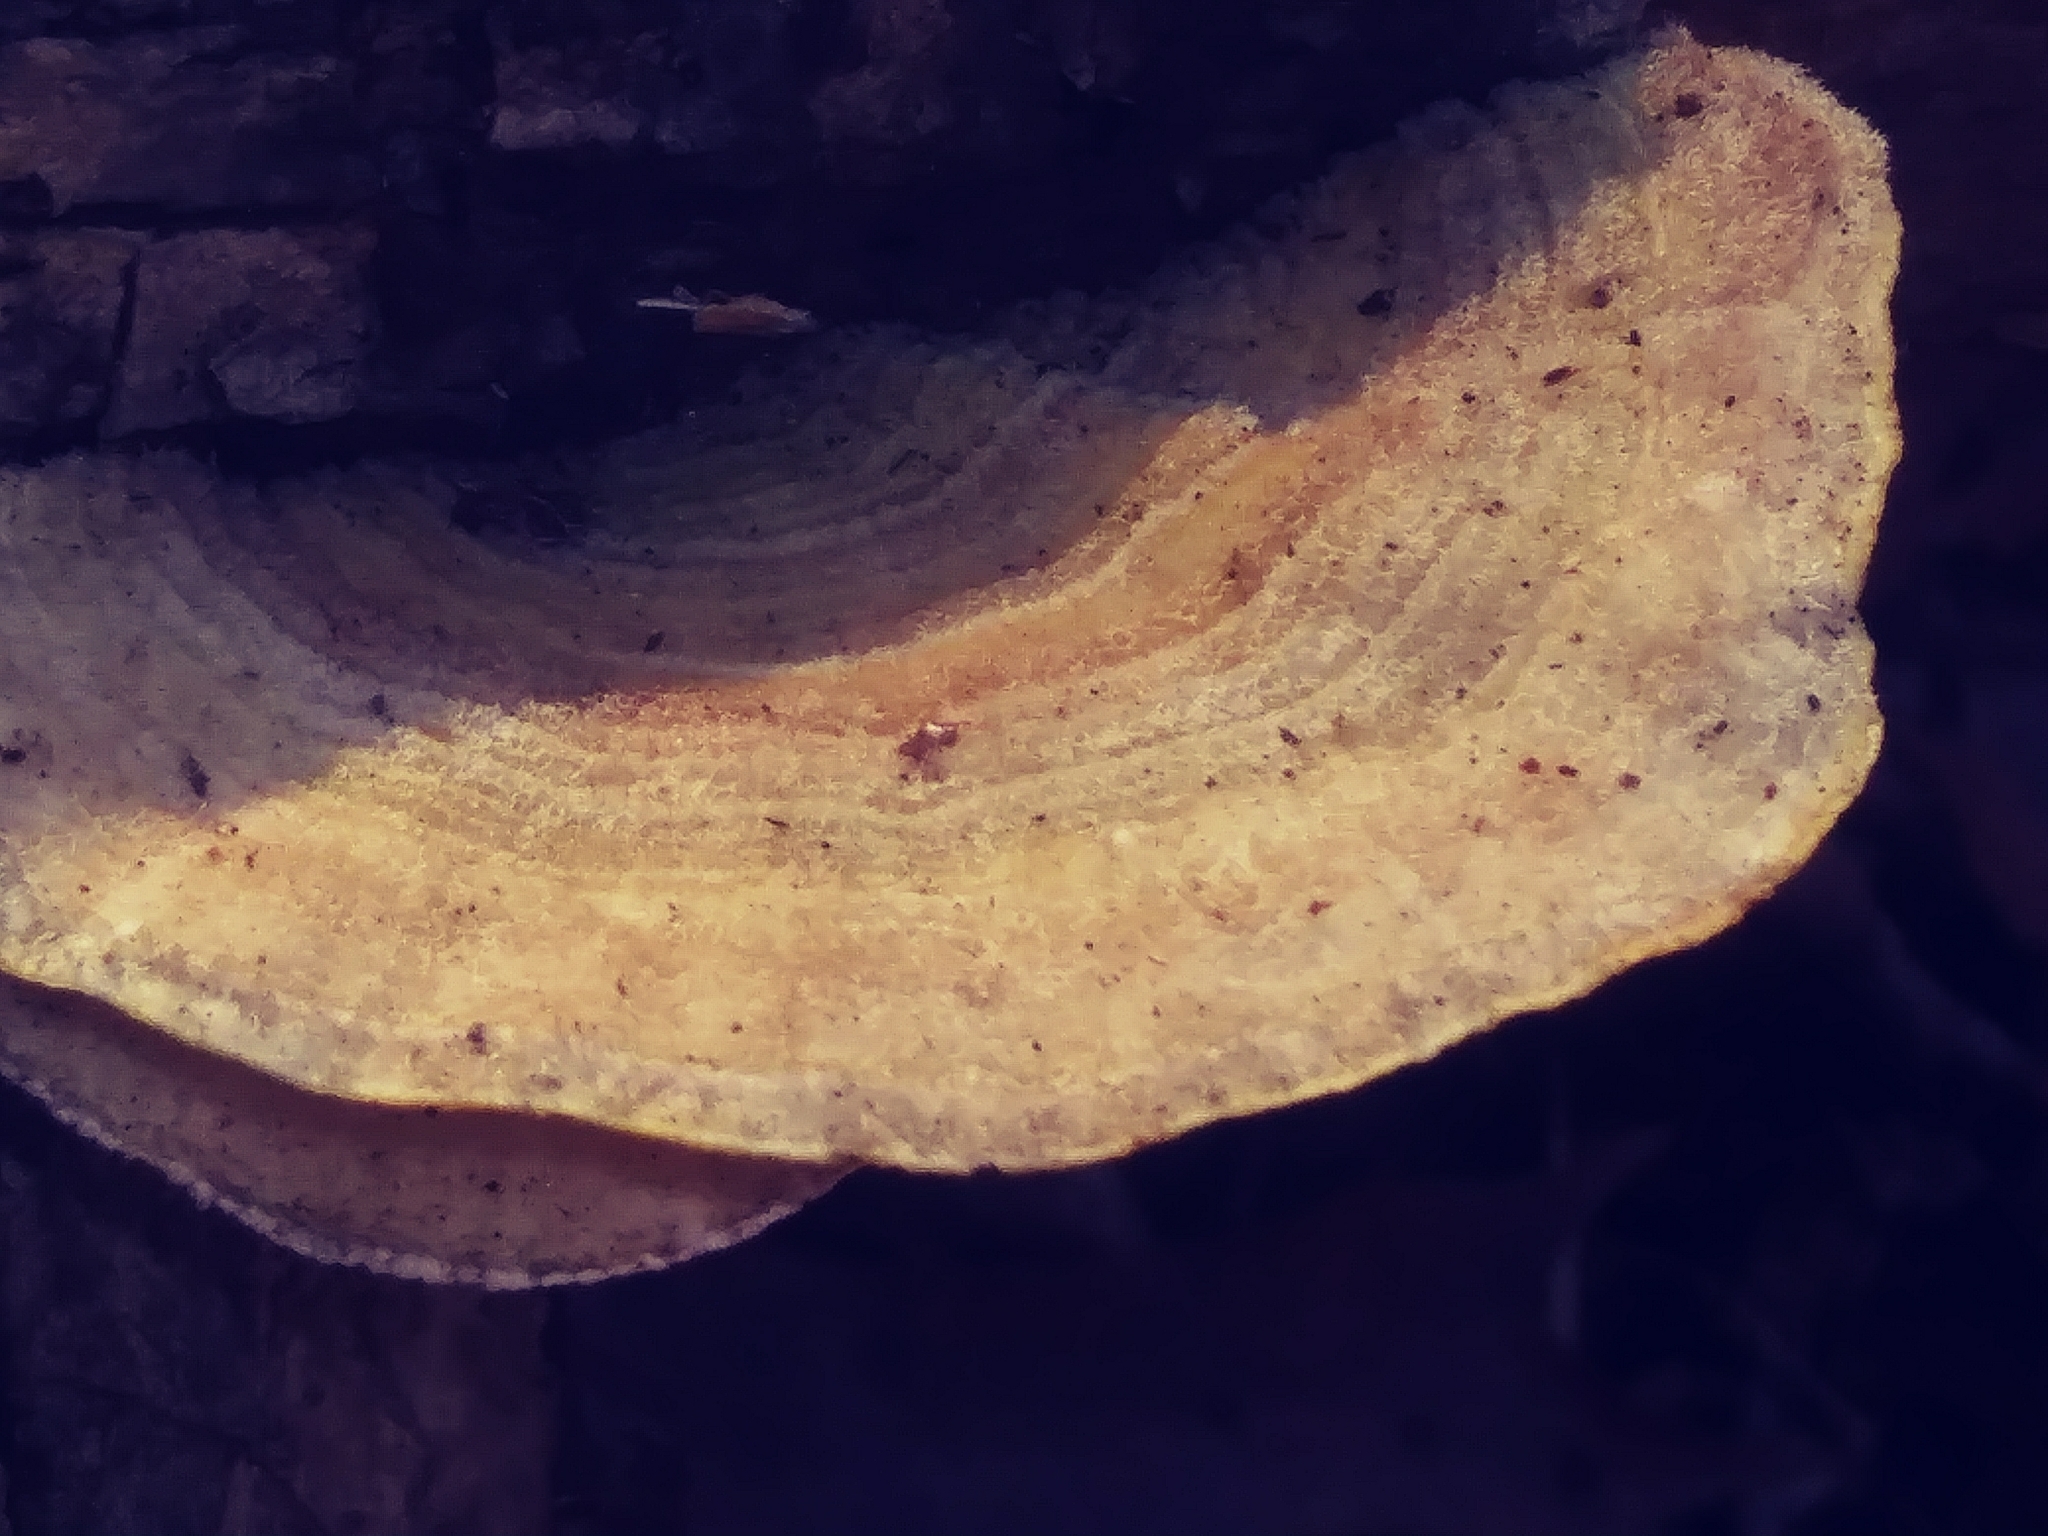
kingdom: Fungi
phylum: Basidiomycota
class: Agaricomycetes
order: Polyporales
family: Polyporaceae
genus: Lenzites
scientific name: Lenzites betulinus
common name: Birch mazegill
